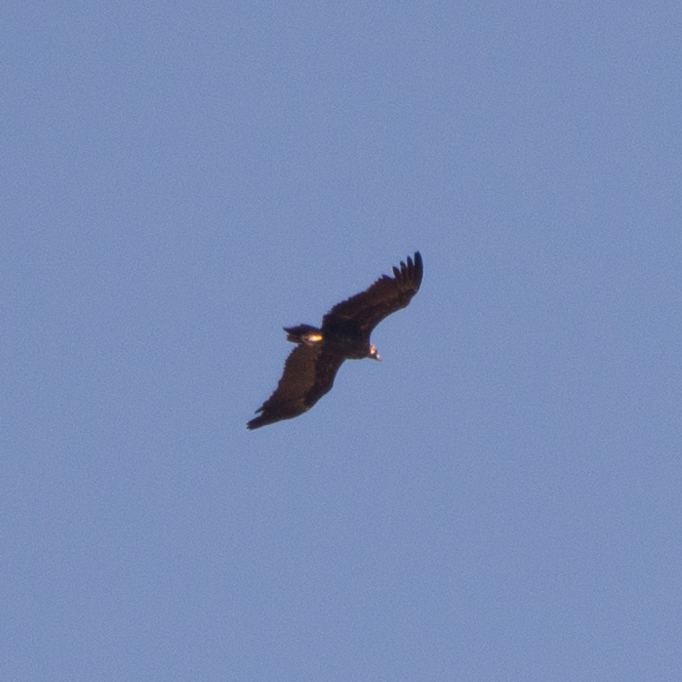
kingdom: Animalia
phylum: Chordata
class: Aves
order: Accipitriformes
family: Accipitridae
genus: Aegypius
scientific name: Aegypius monachus
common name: Cinereous vulture
